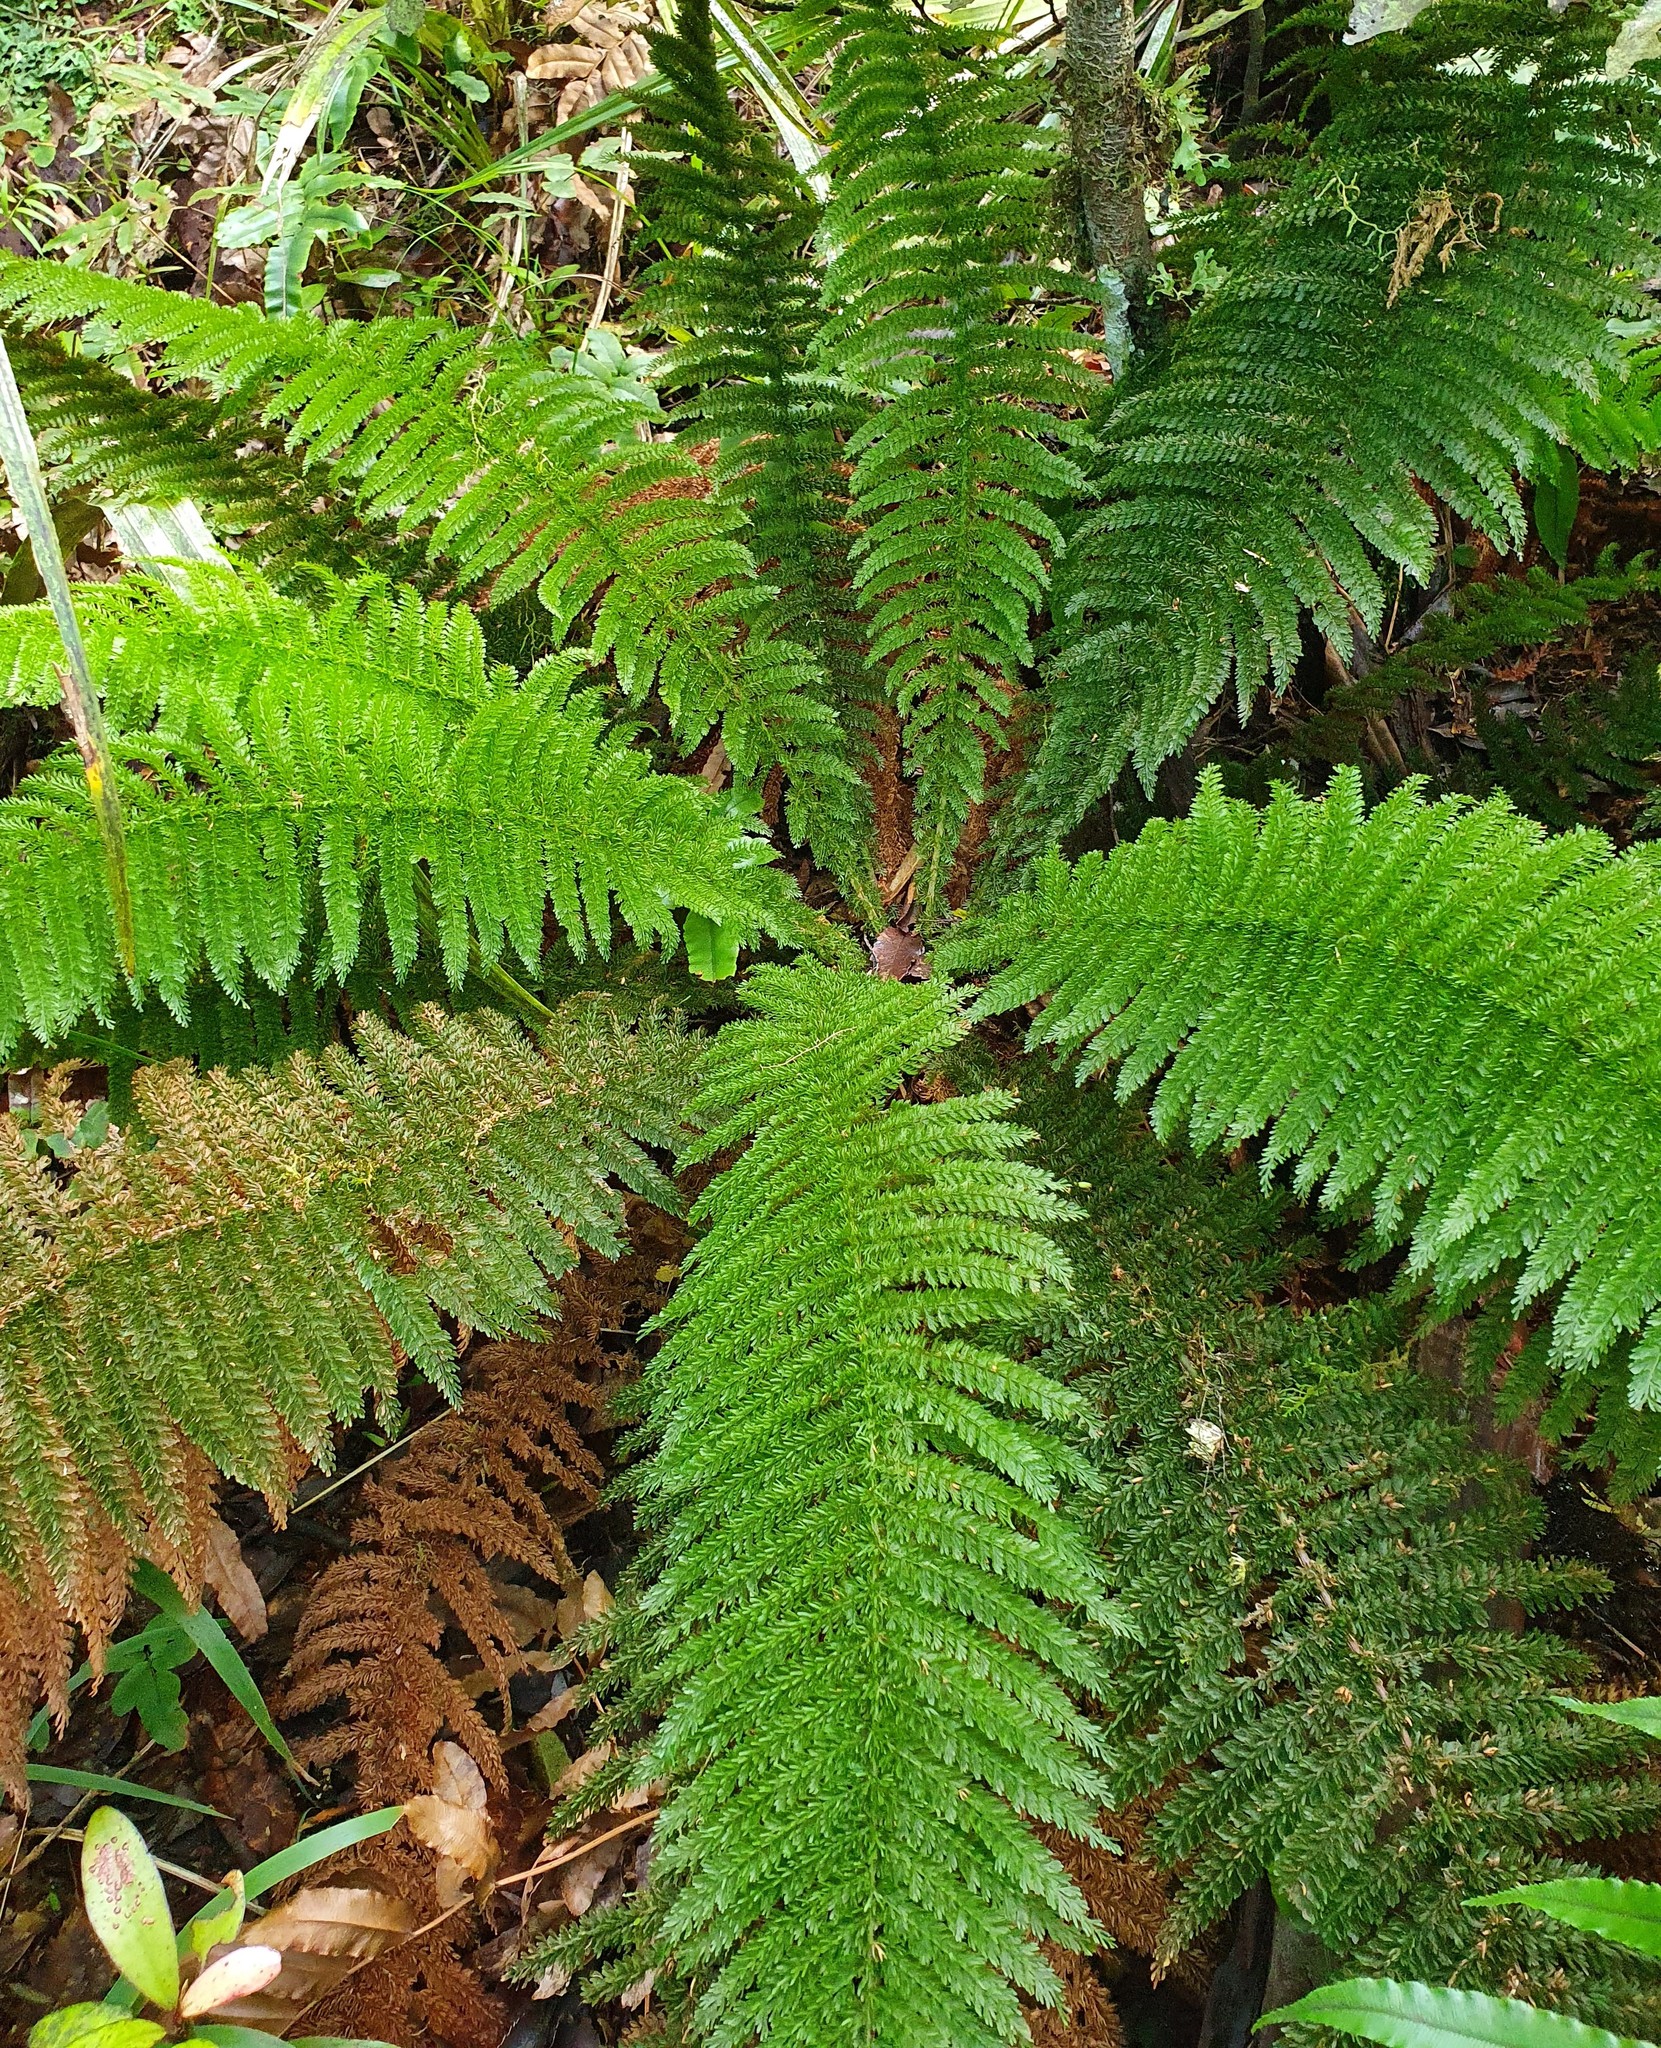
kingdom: Plantae
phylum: Tracheophyta
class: Polypodiopsida
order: Osmundales
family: Osmundaceae
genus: Leptopteris
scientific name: Leptopteris superba
